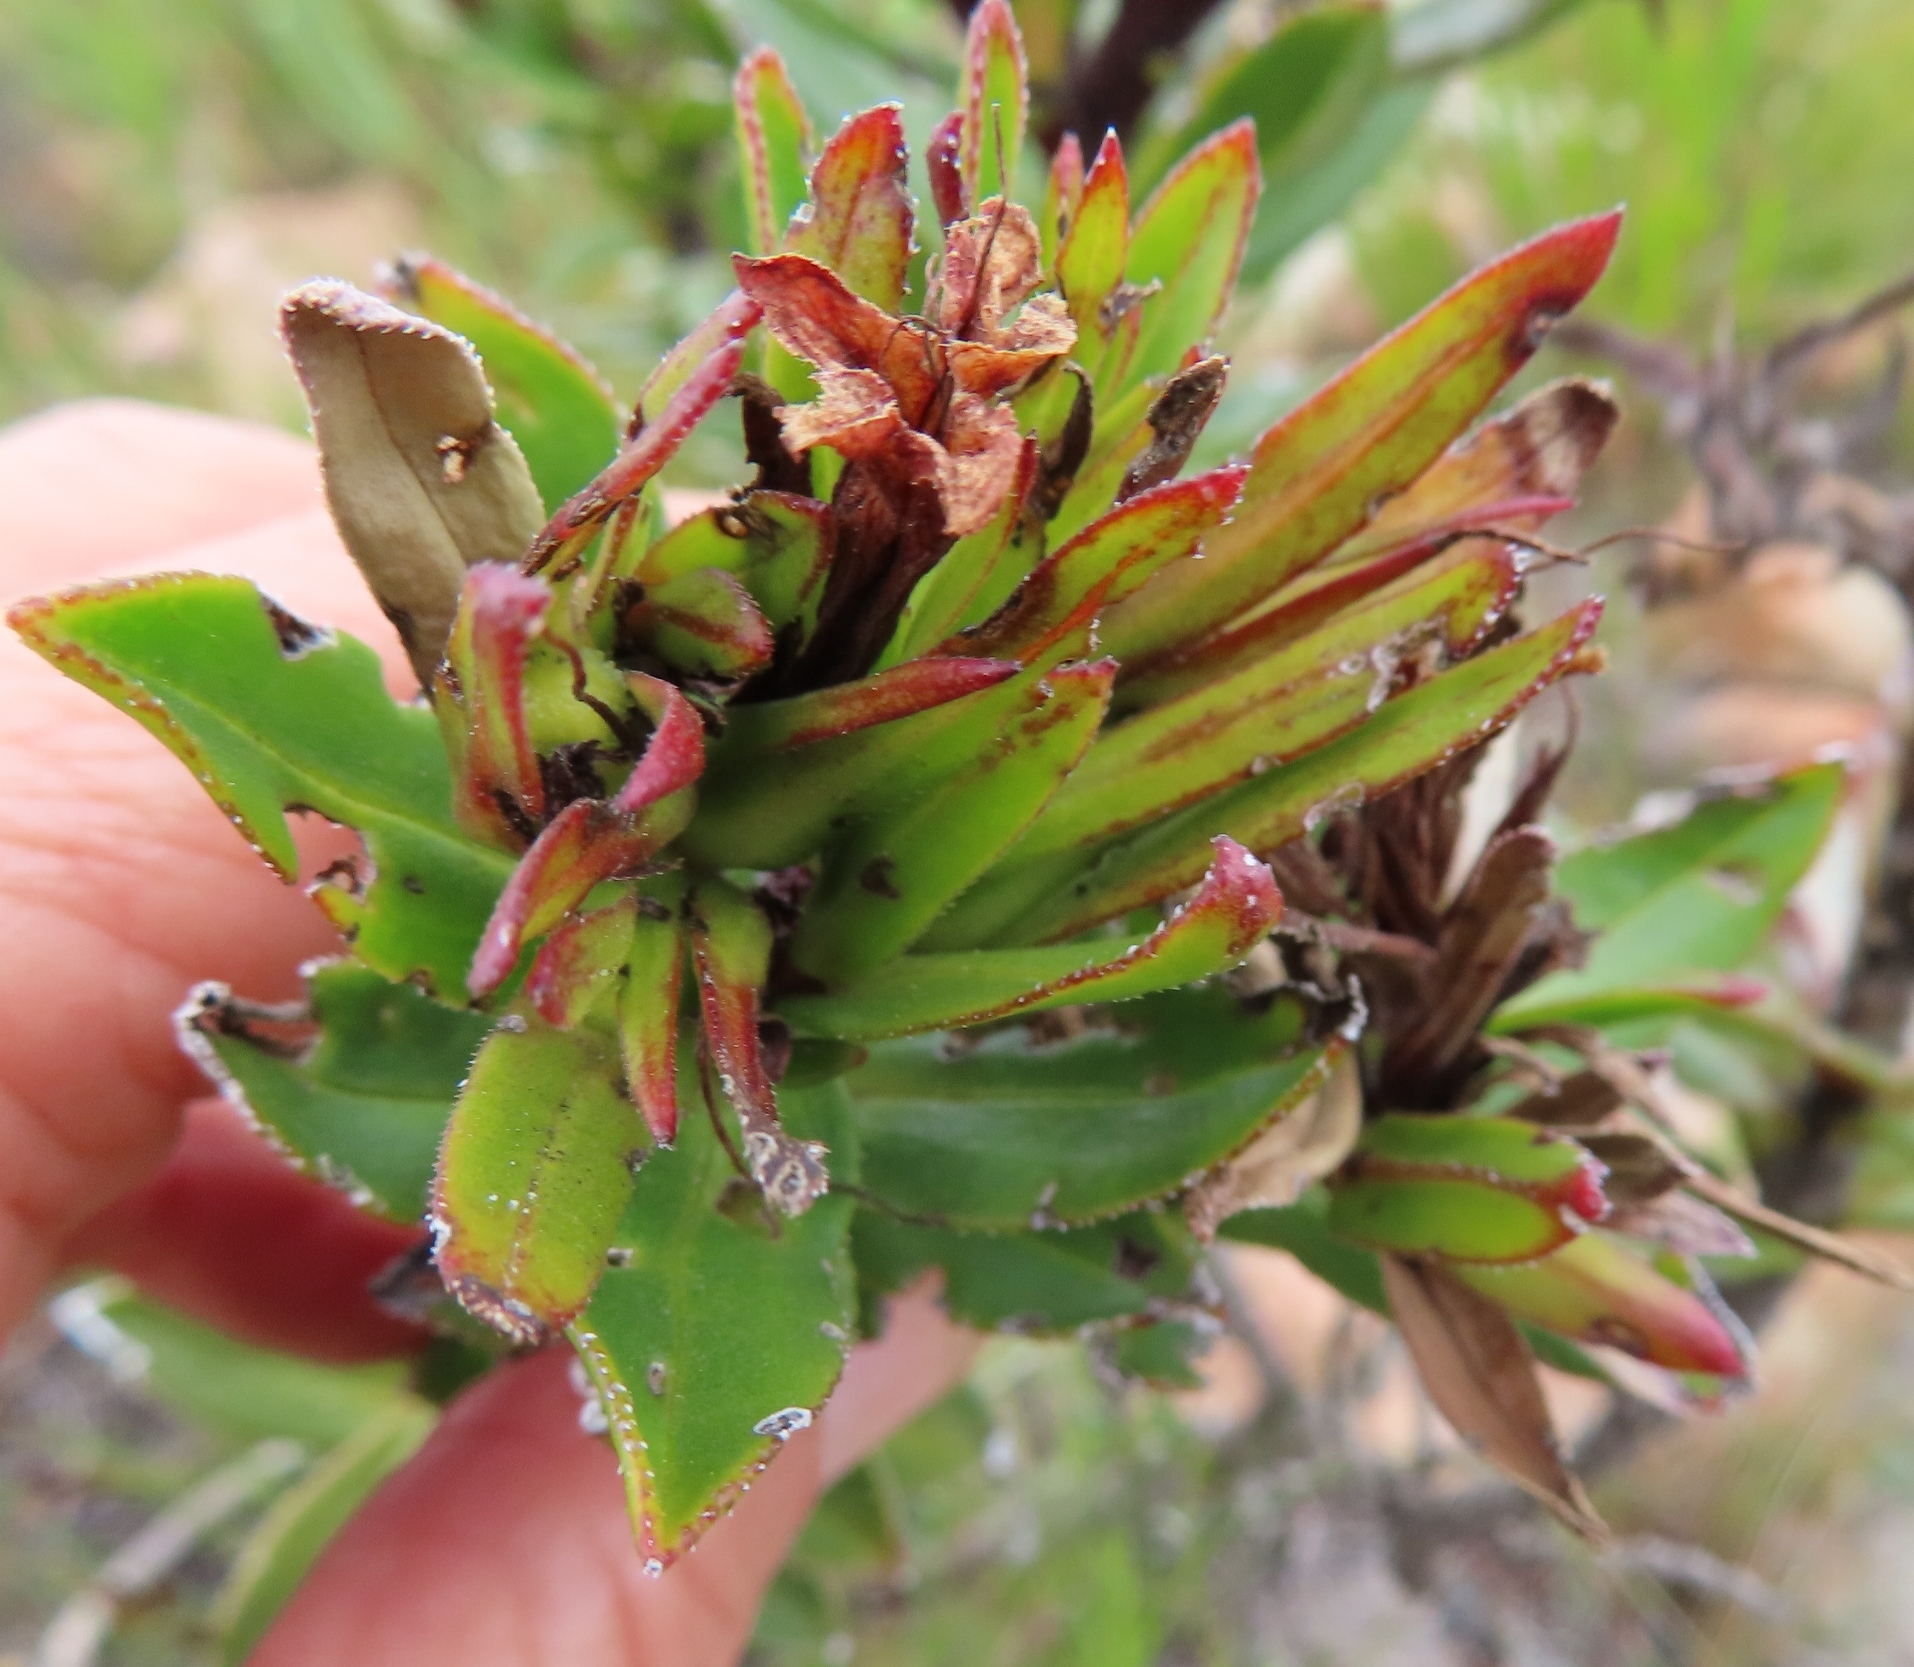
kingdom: Plantae
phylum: Tracheophyta
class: Magnoliopsida
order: Boraginales
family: Boraginaceae
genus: Lobostemon
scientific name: Lobostemon sanguineus
